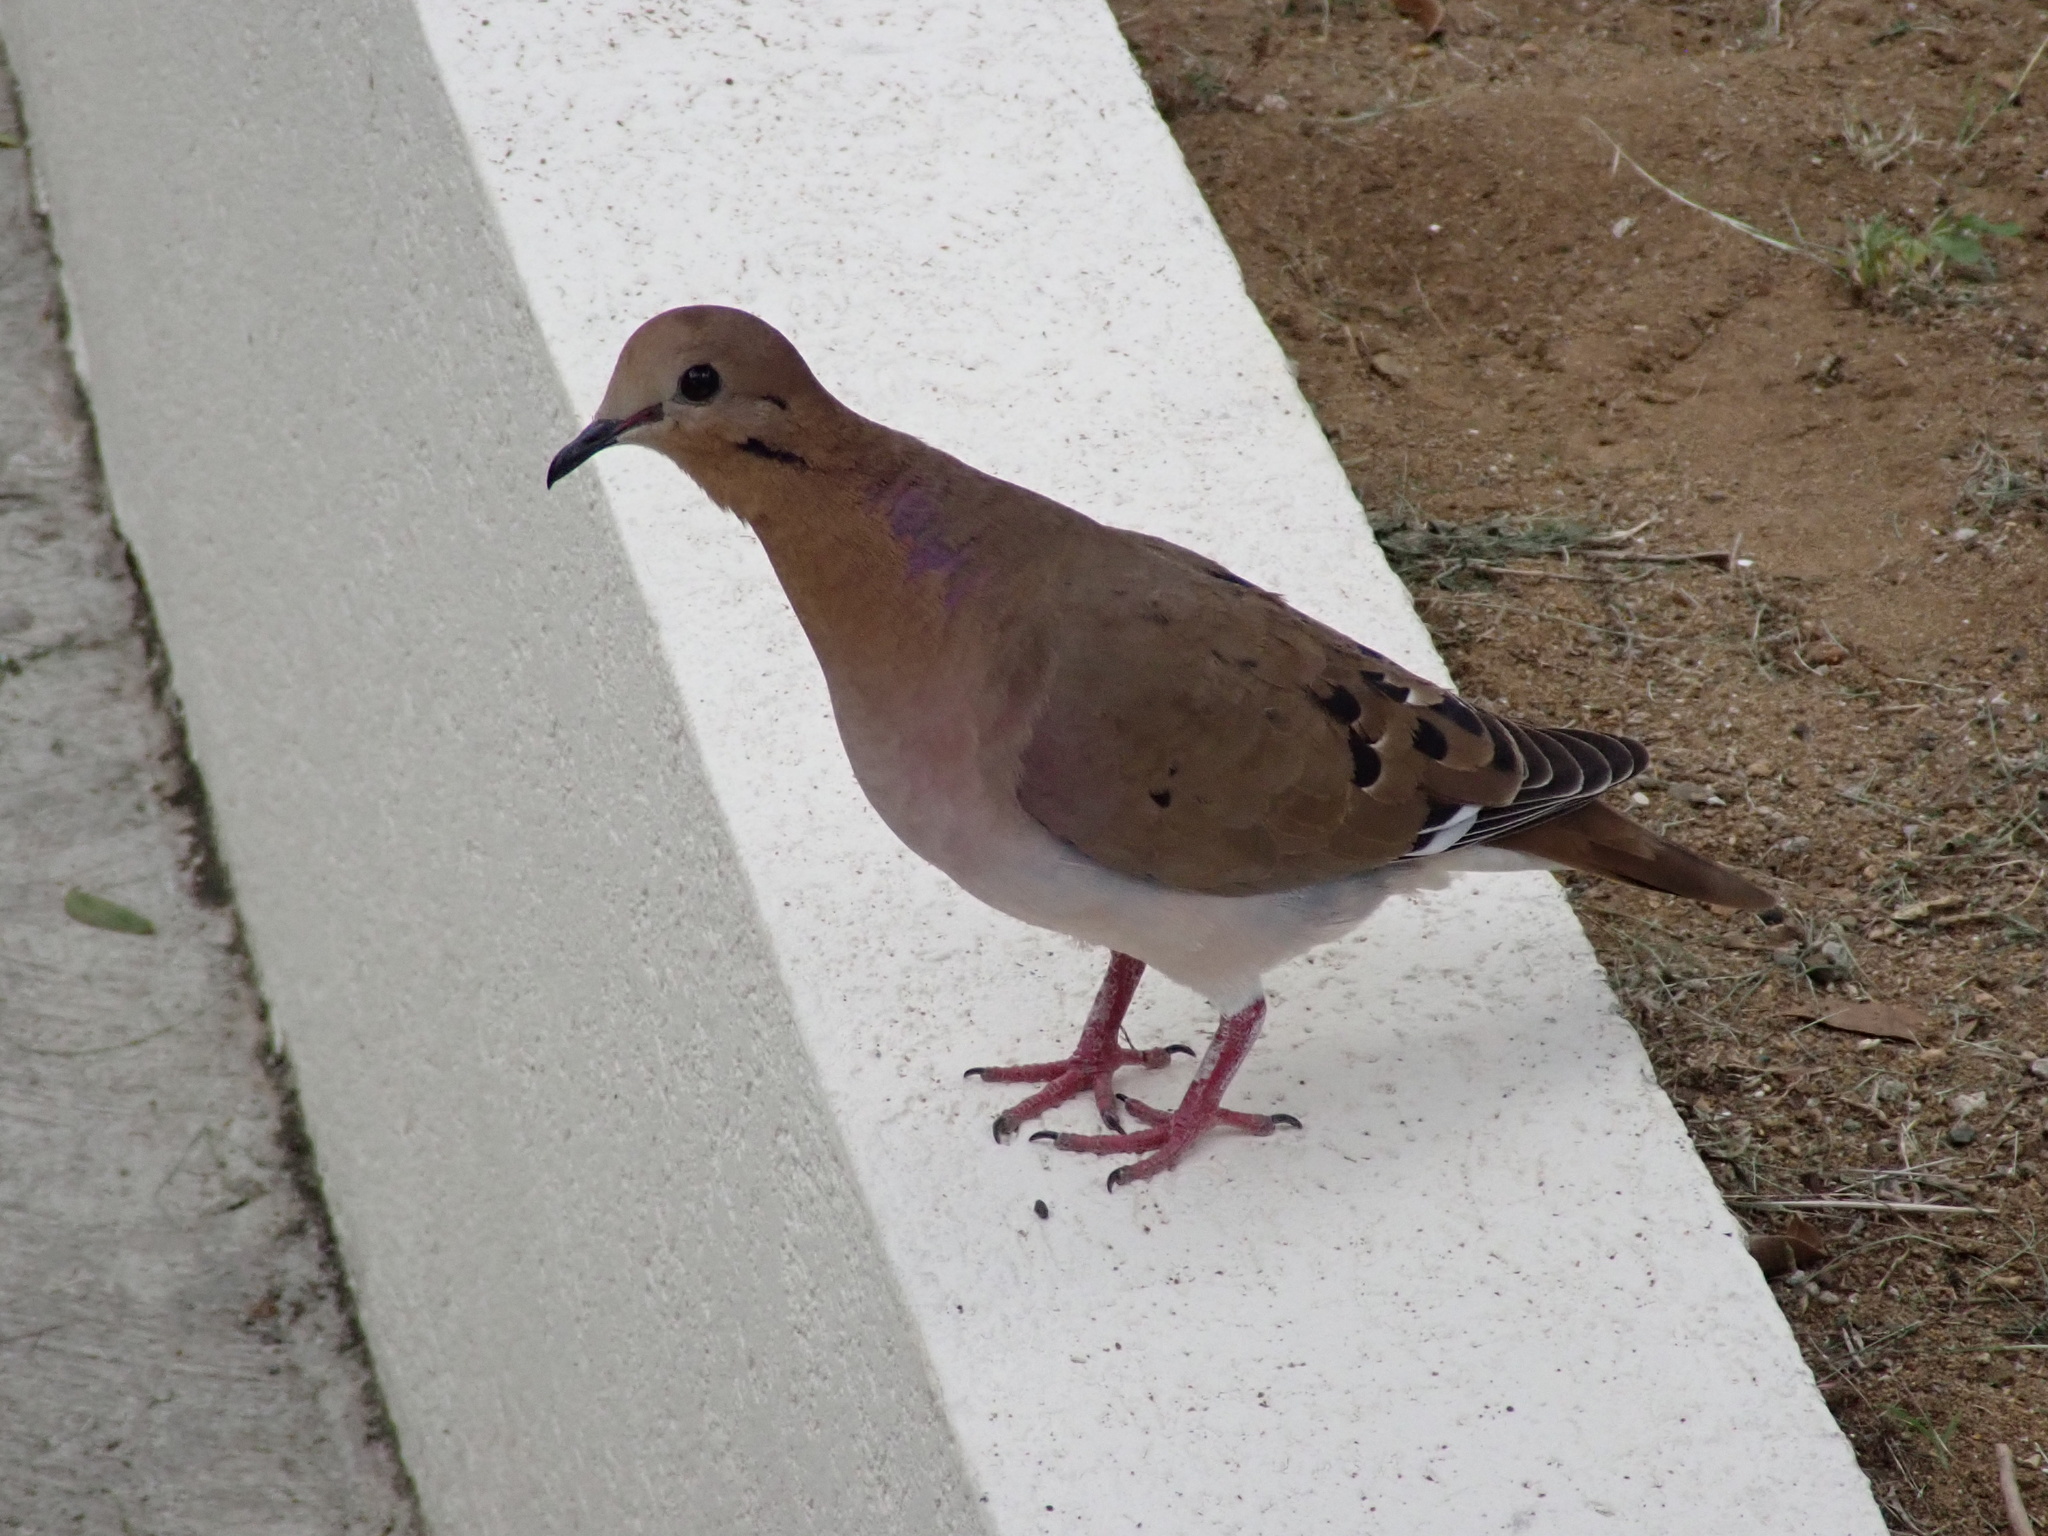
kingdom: Animalia
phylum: Chordata
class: Aves
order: Columbiformes
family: Columbidae
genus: Zenaida
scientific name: Zenaida aurita
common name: Zenaida dove
